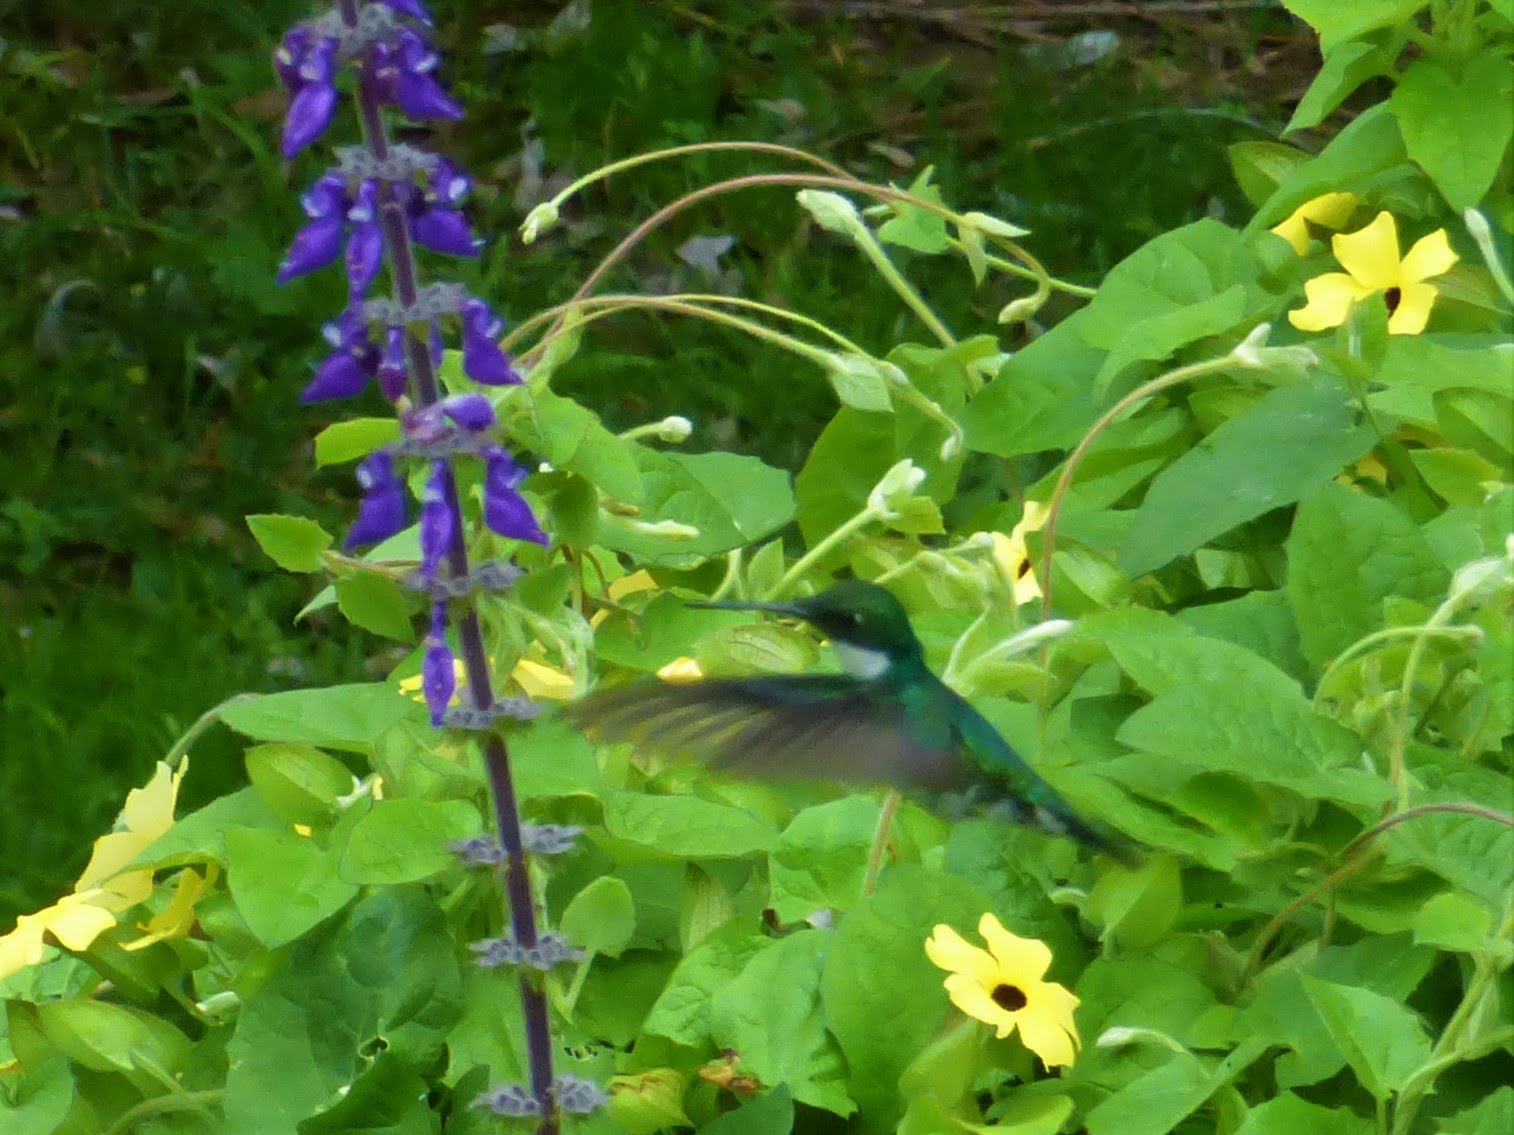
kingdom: Animalia
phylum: Chordata
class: Aves
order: Apodiformes
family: Trochilidae
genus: Leucochloris
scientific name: Leucochloris albicollis
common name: White-throated hummingbird
